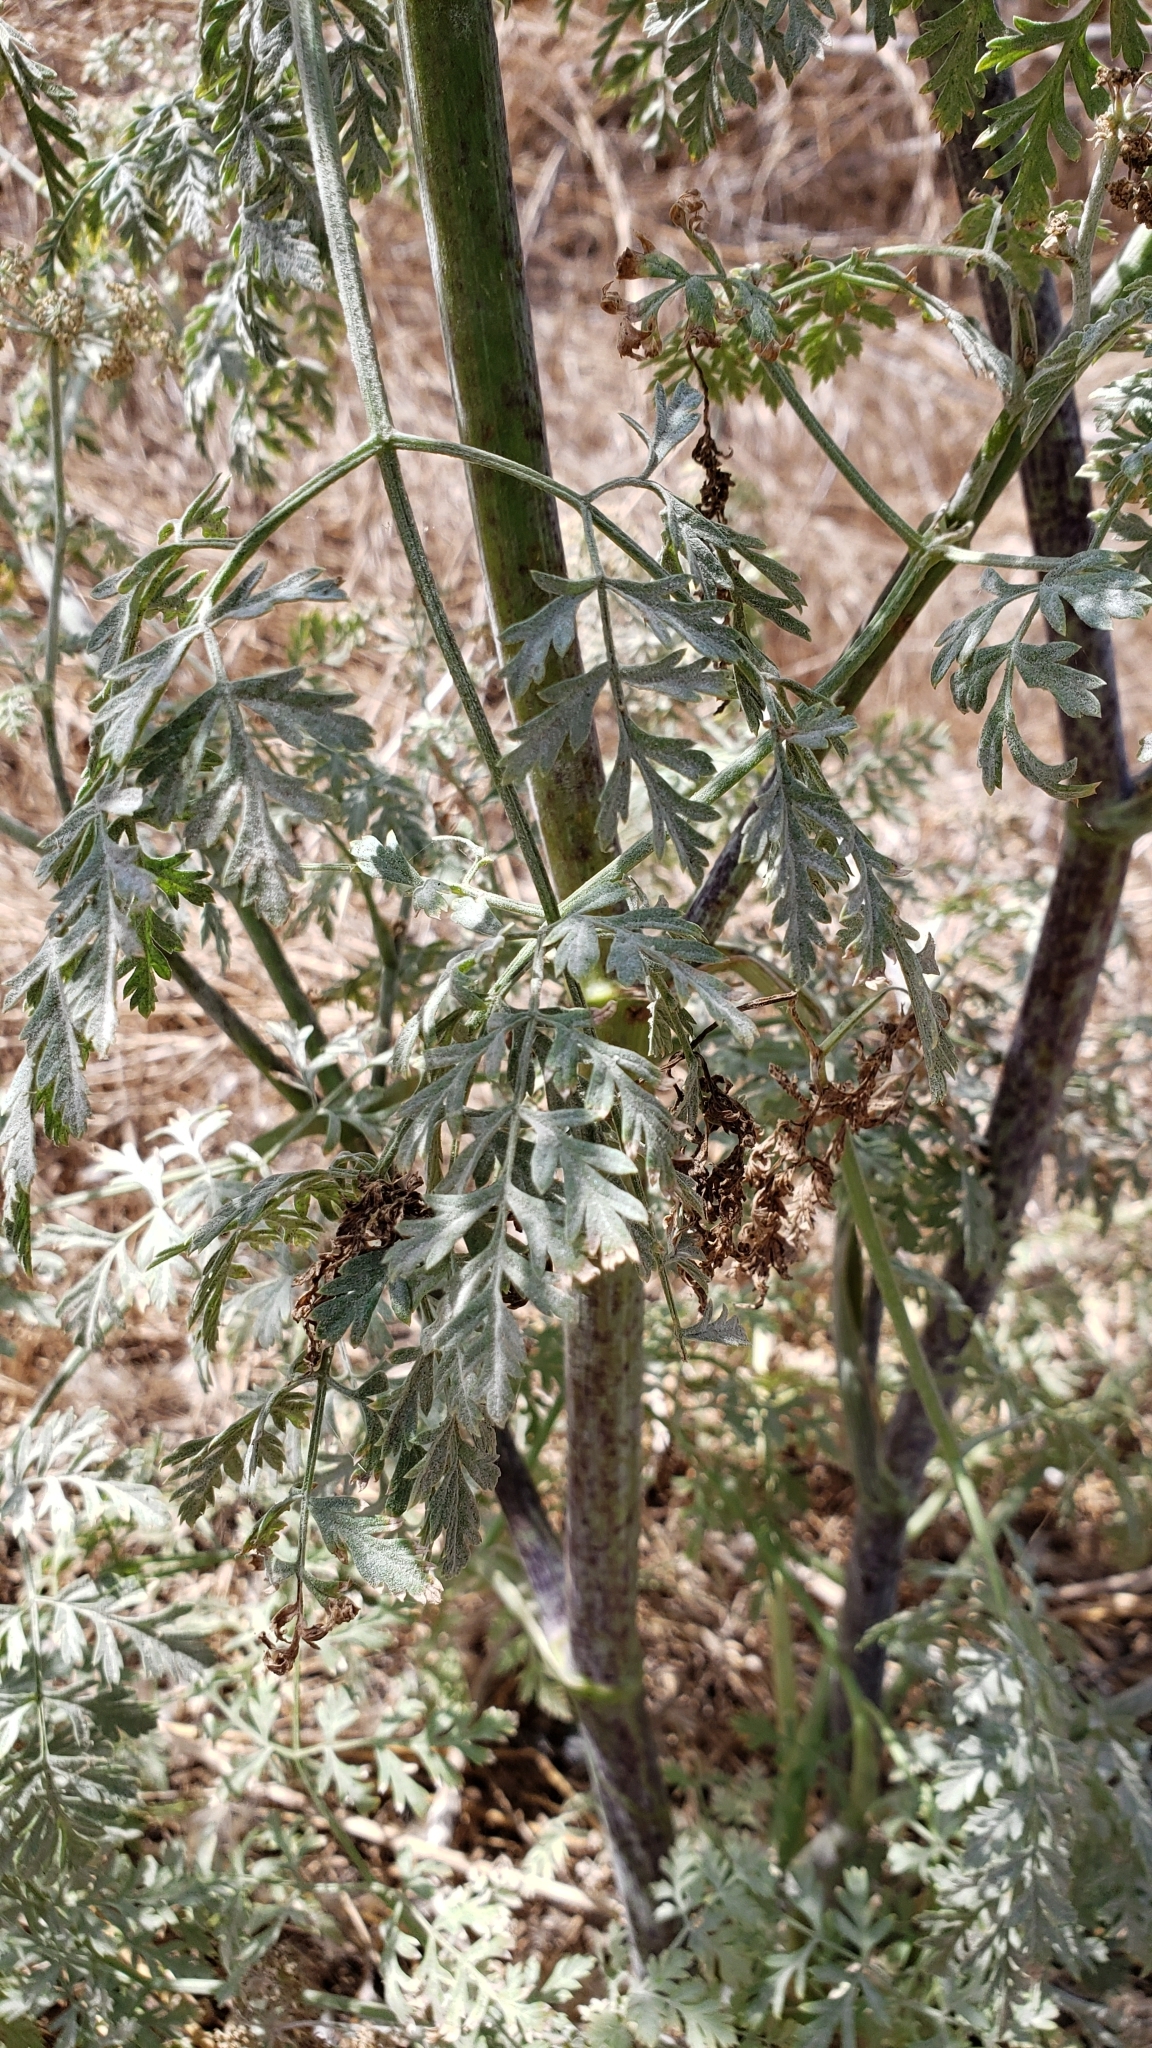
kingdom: Plantae
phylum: Tracheophyta
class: Magnoliopsida
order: Apiales
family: Apiaceae
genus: Conium
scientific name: Conium maculatum
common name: Hemlock
